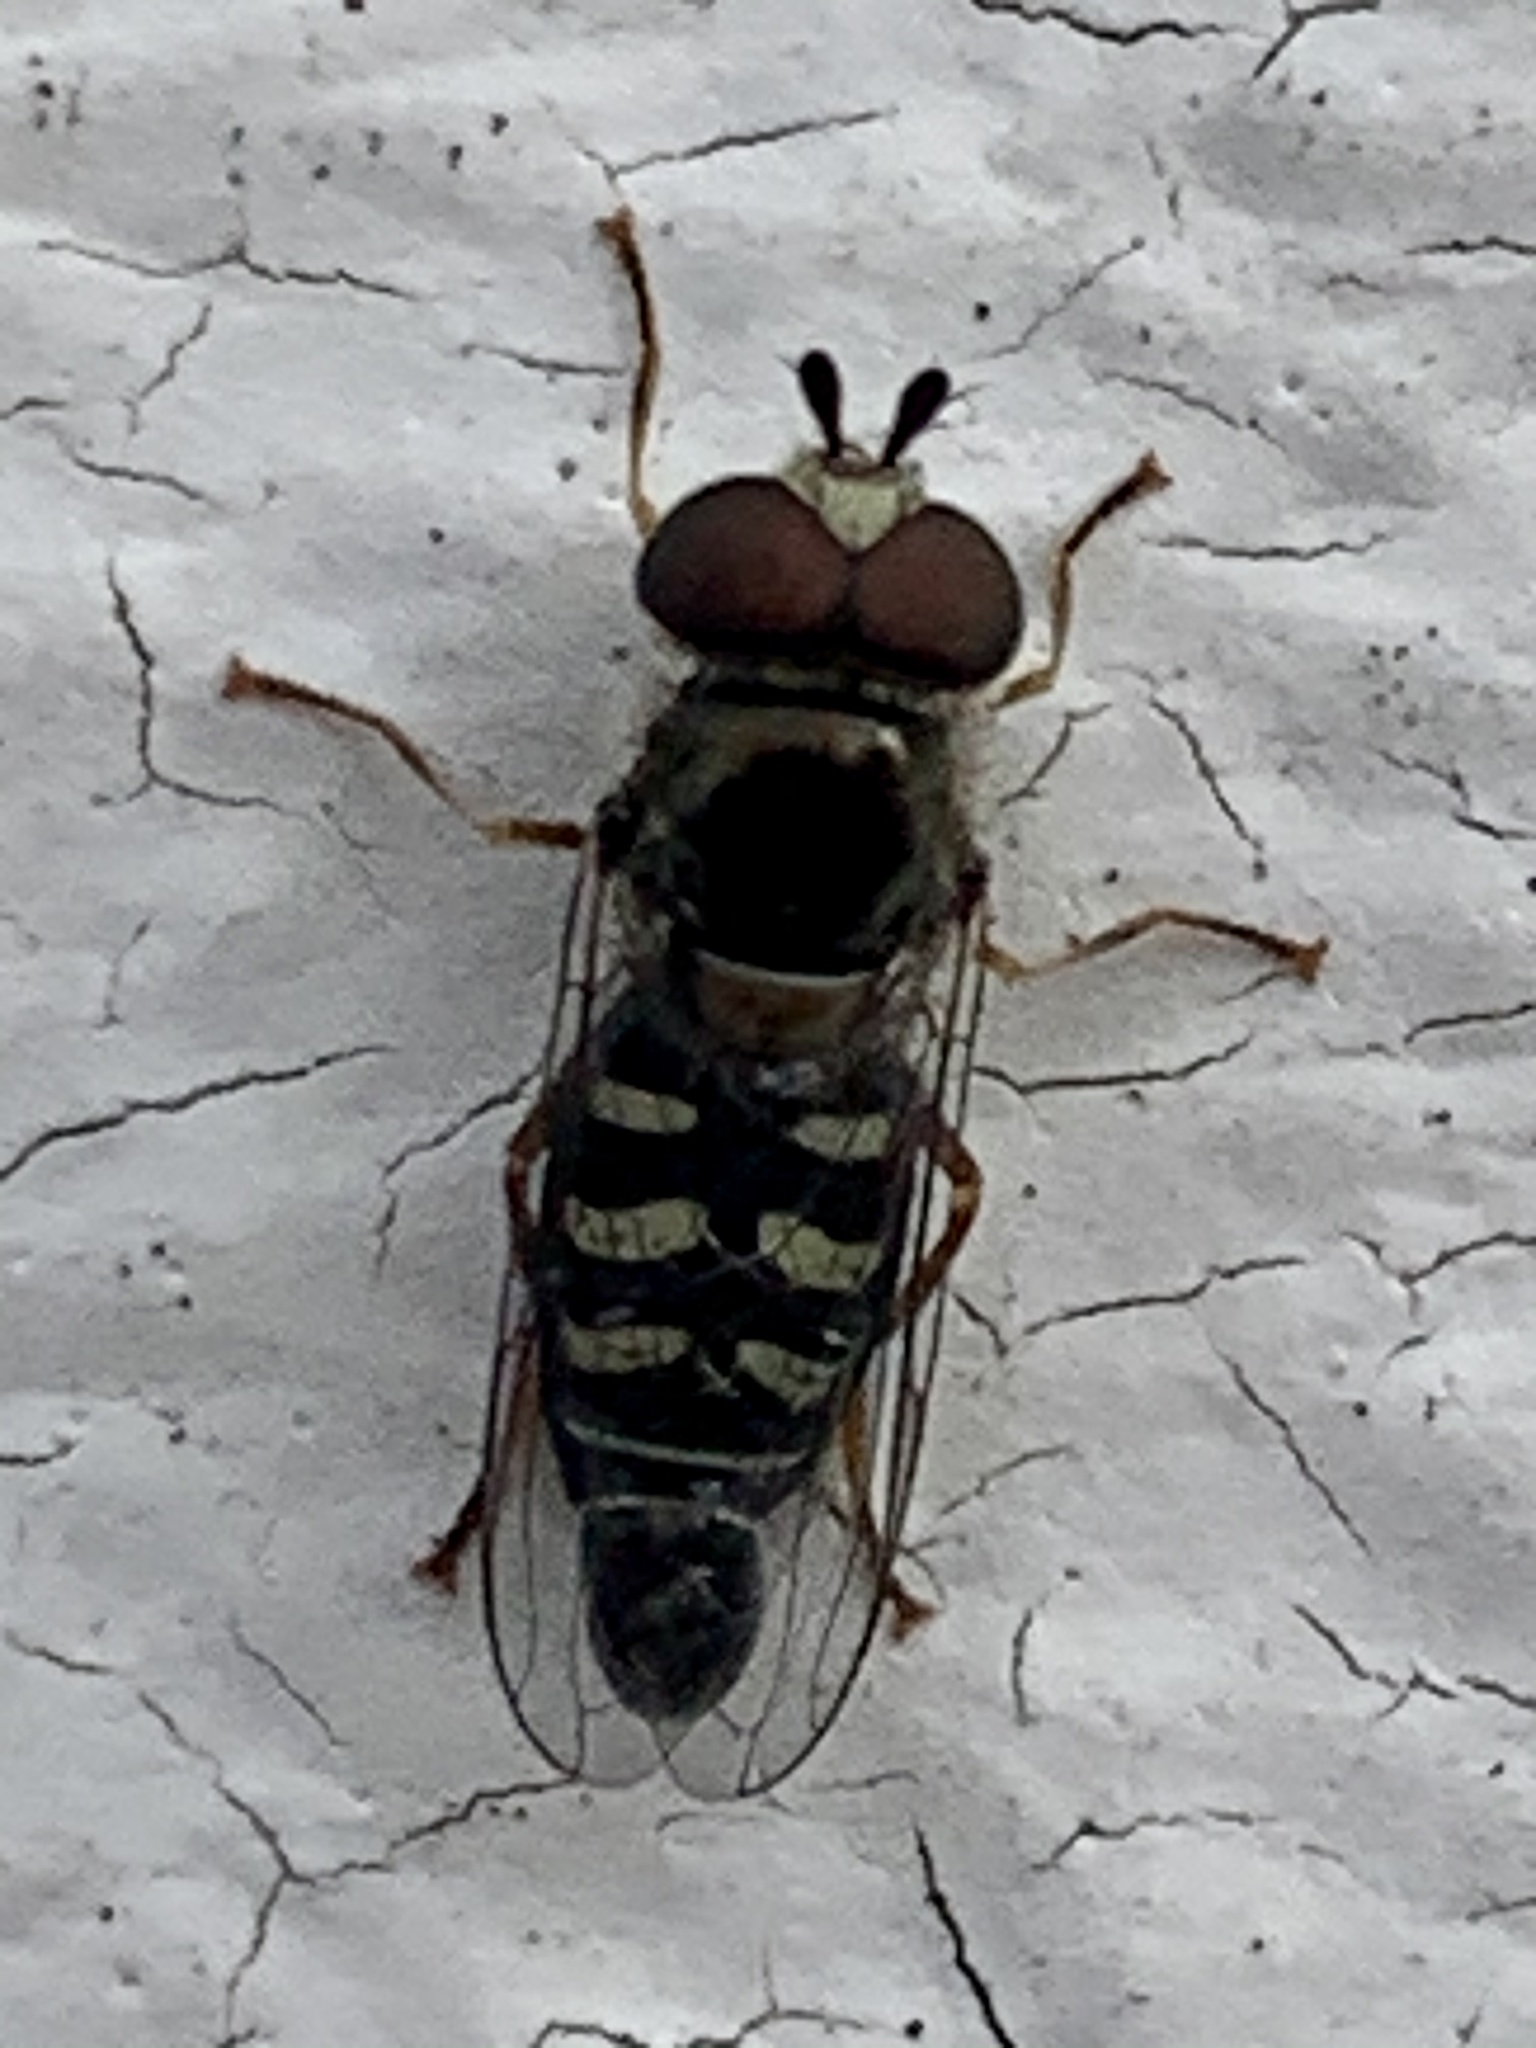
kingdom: Animalia
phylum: Arthropoda
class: Insecta
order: Diptera
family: Syrphidae
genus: Eupeodes
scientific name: Eupeodes volucris
